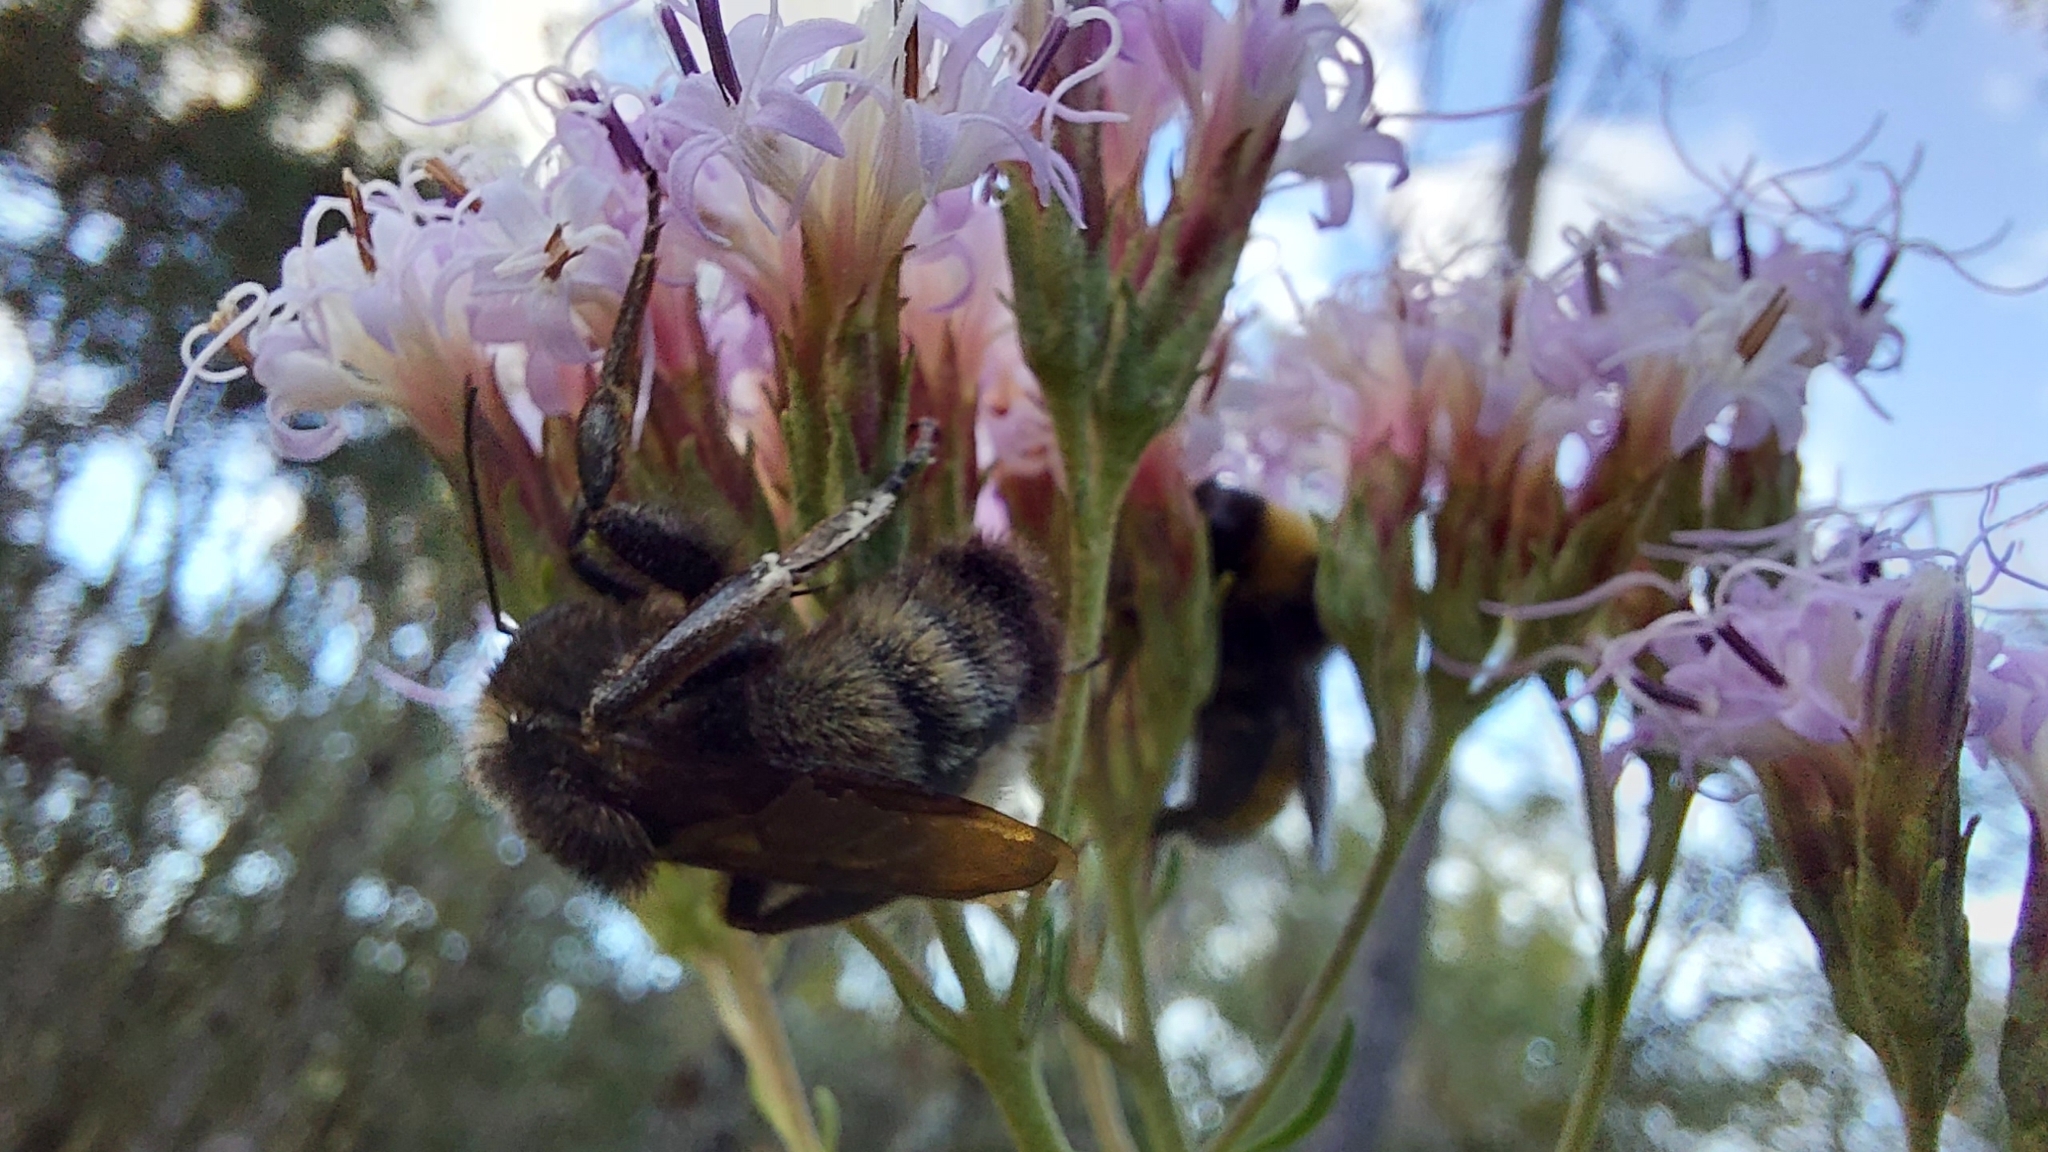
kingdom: Animalia
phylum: Arthropoda
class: Insecta
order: Hymenoptera
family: Apidae
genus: Bombus
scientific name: Bombus pensylvanicus
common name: Bumble bee
